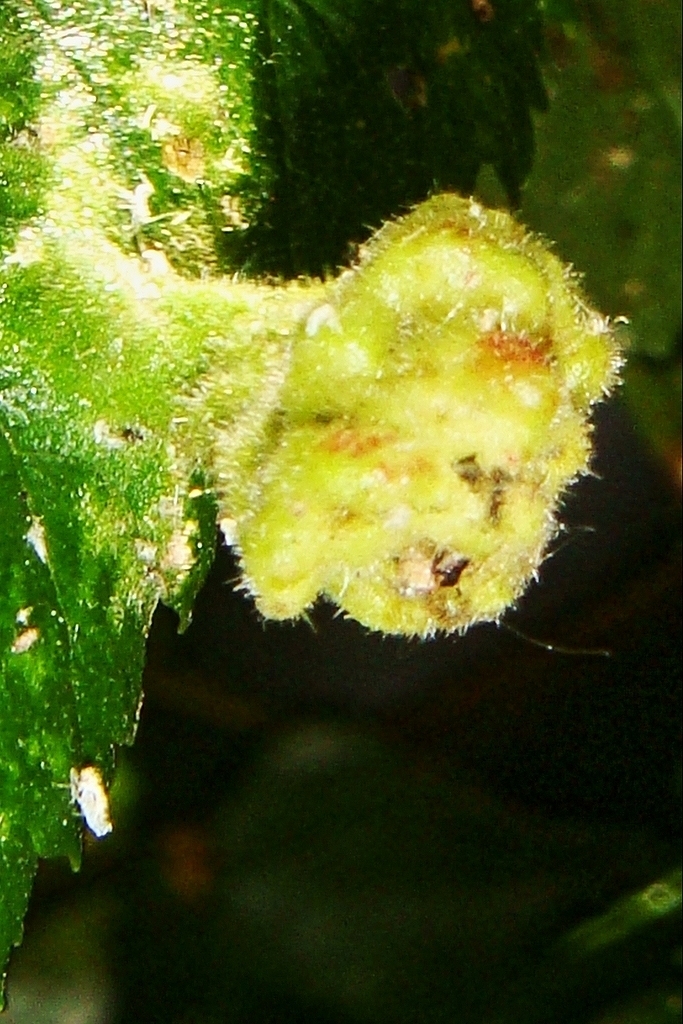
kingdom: Animalia
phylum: Arthropoda
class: Insecta
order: Hemiptera
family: Aphididae
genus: Tetraneura
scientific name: Tetraneura caerulescens
